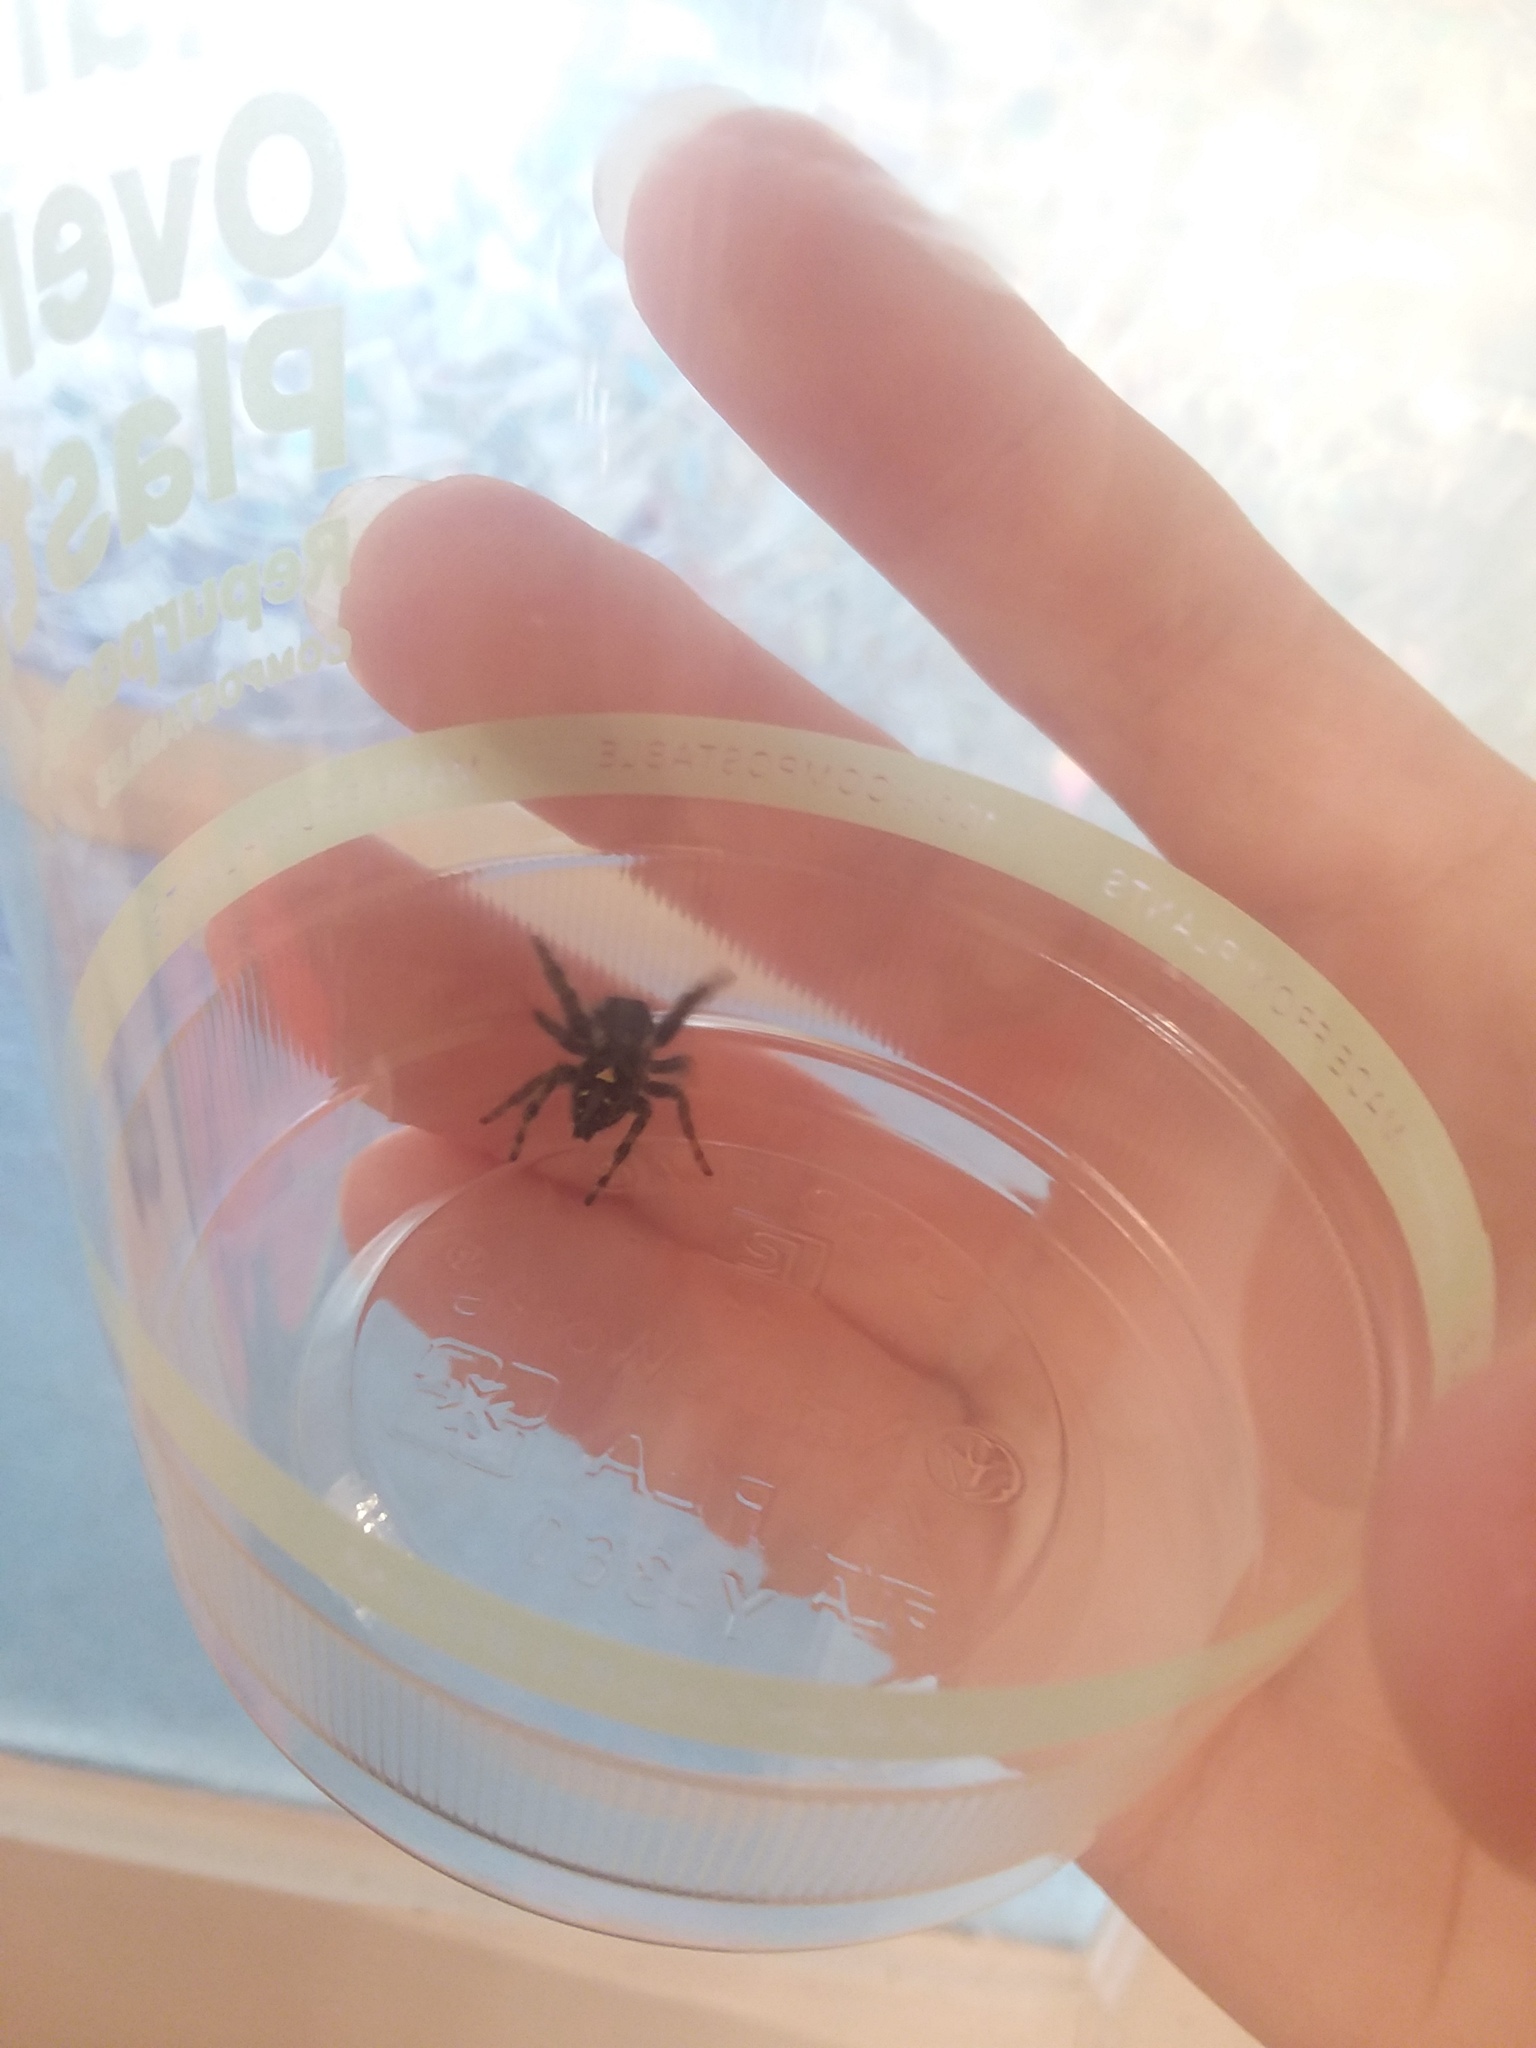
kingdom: Animalia
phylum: Arthropoda
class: Arachnida
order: Araneae
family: Salticidae
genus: Phidippus
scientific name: Phidippus audax
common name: Bold jumper
